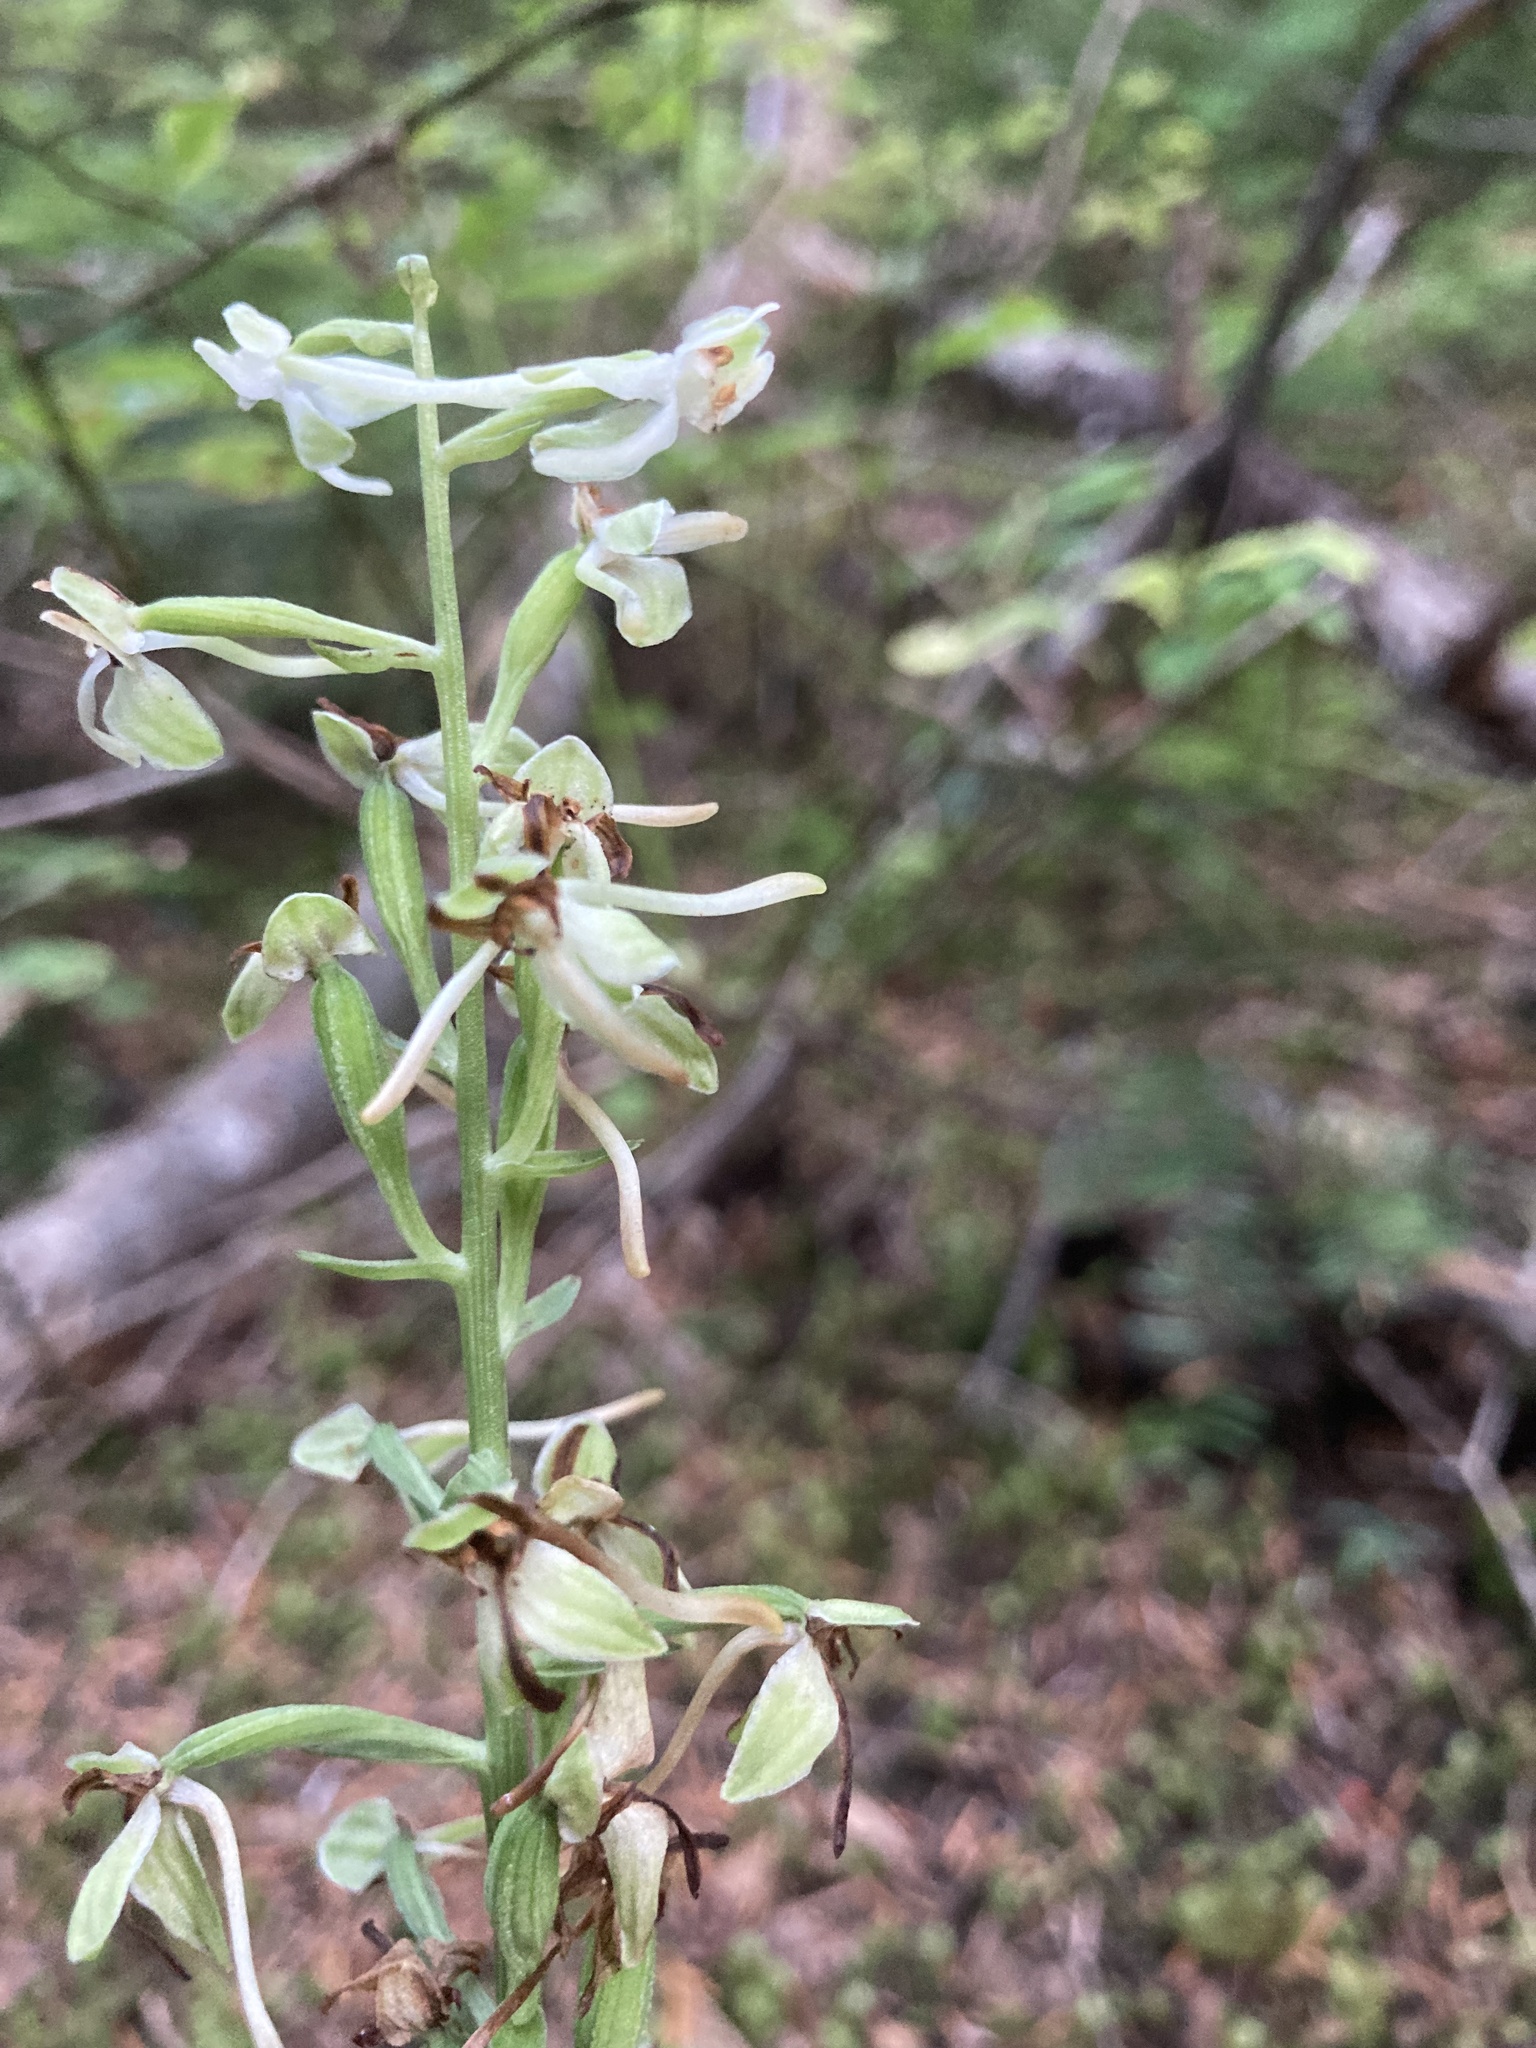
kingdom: Plantae
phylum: Tracheophyta
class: Liliopsida
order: Asparagales
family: Orchidaceae
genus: Platanthera
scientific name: Platanthera orbiculata
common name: Large round-leaved orchid
